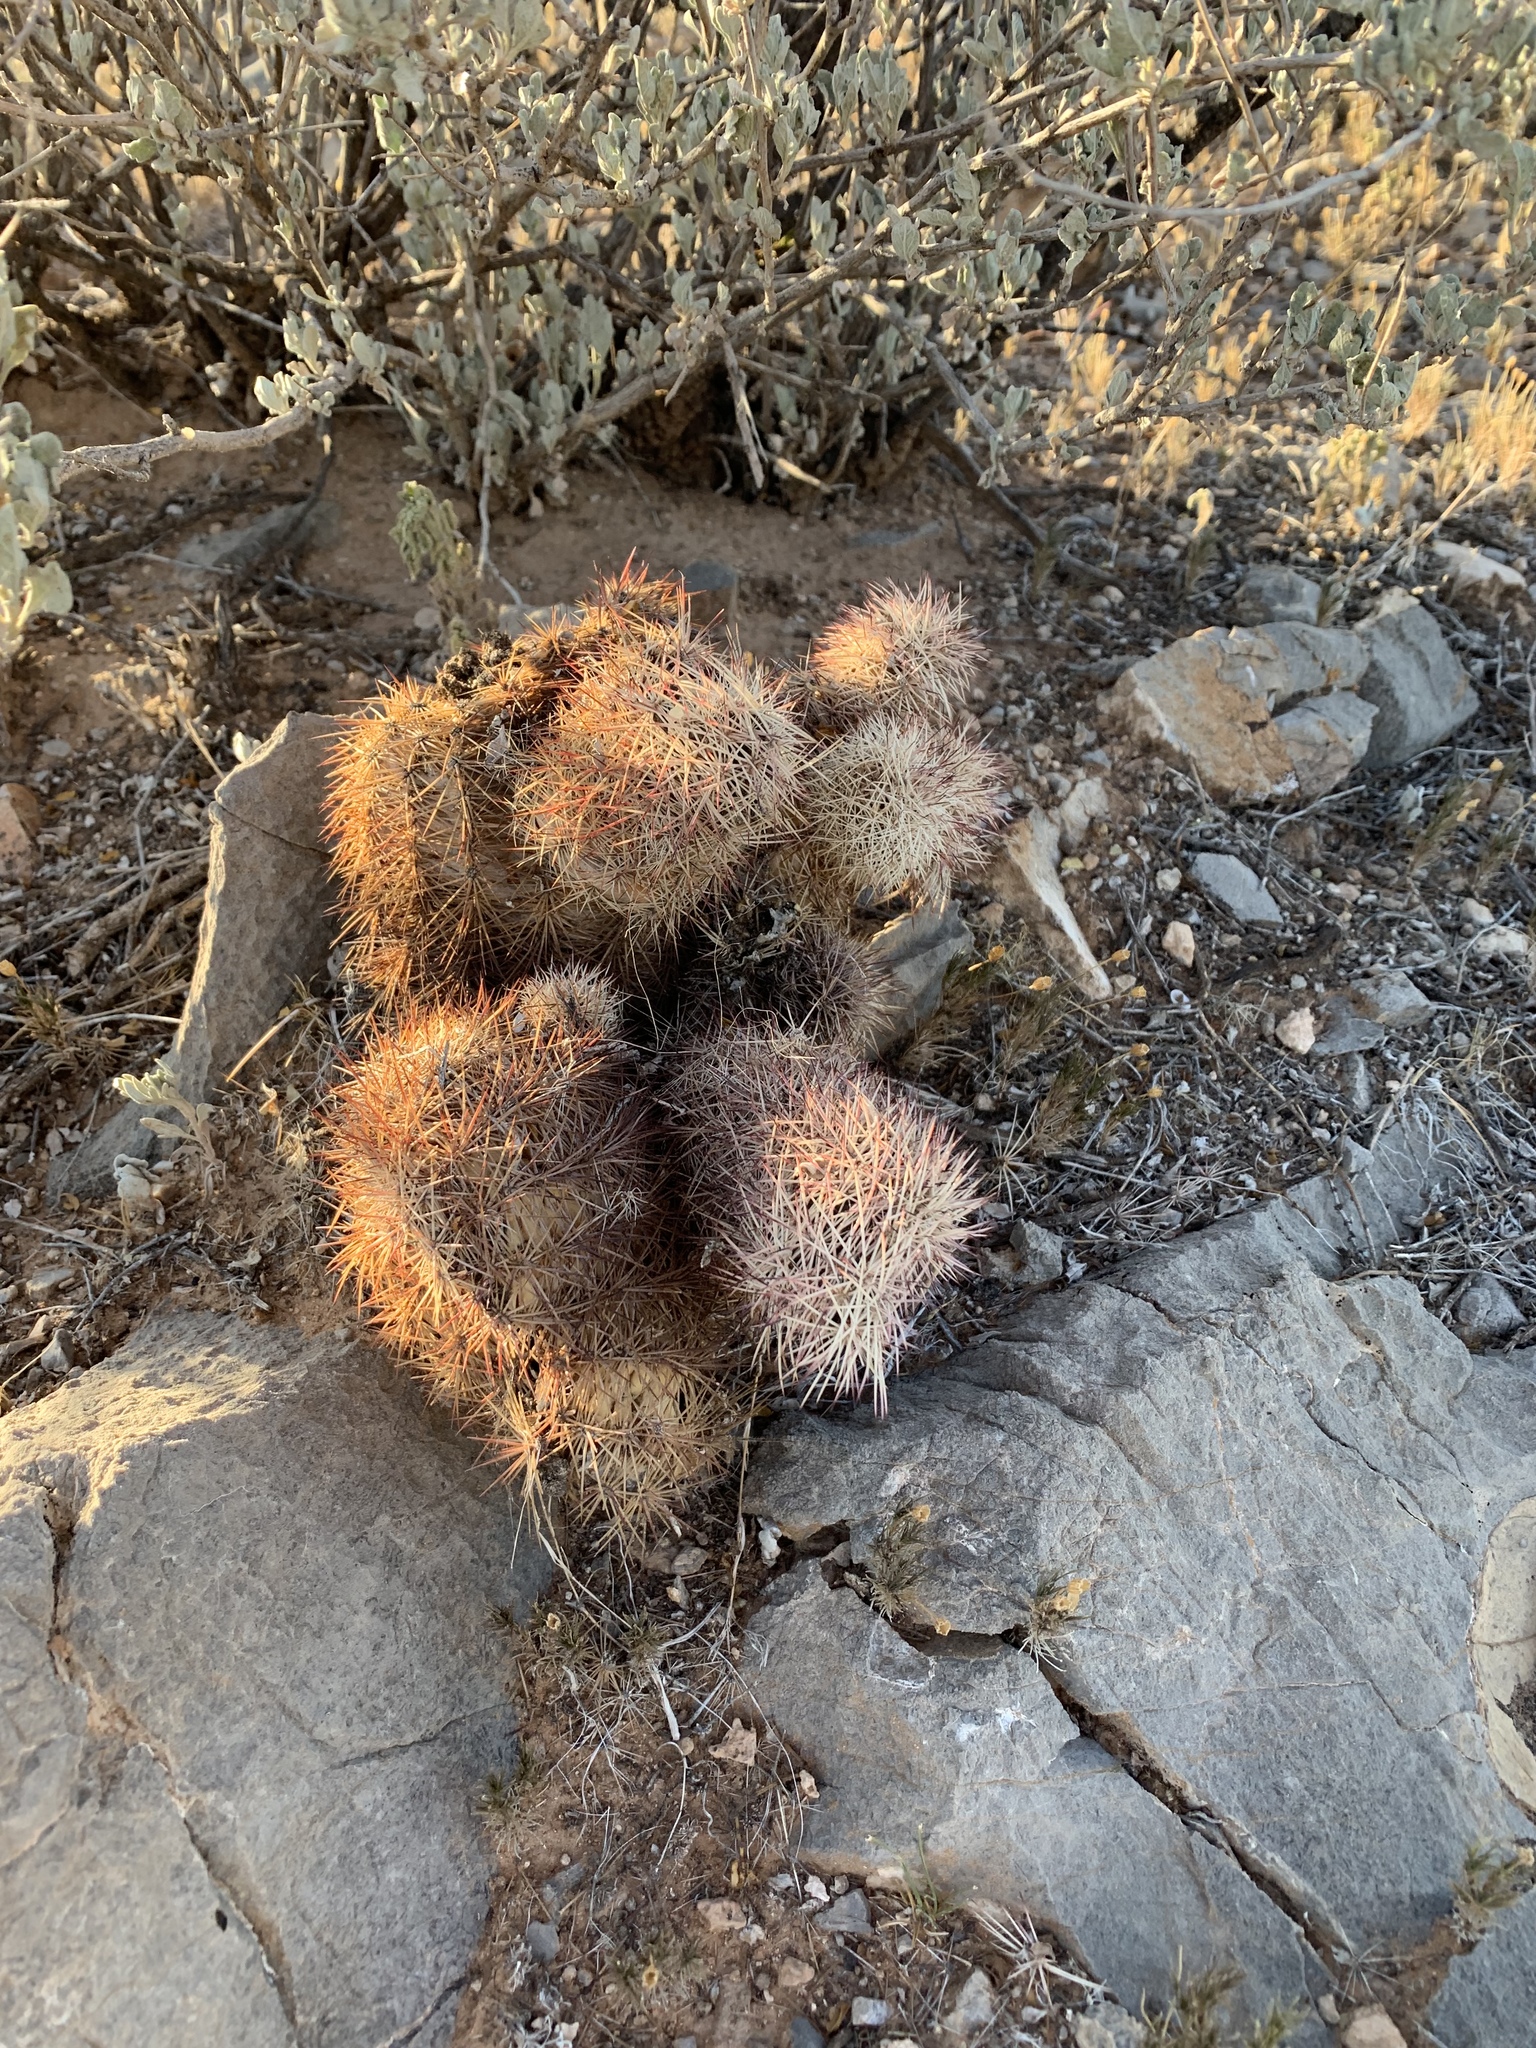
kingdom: Plantae
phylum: Tracheophyta
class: Magnoliopsida
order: Caryophyllales
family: Cactaceae
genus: Echinocereus
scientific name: Echinocereus dasyacanthus
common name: Spiny hedgehog cactus
